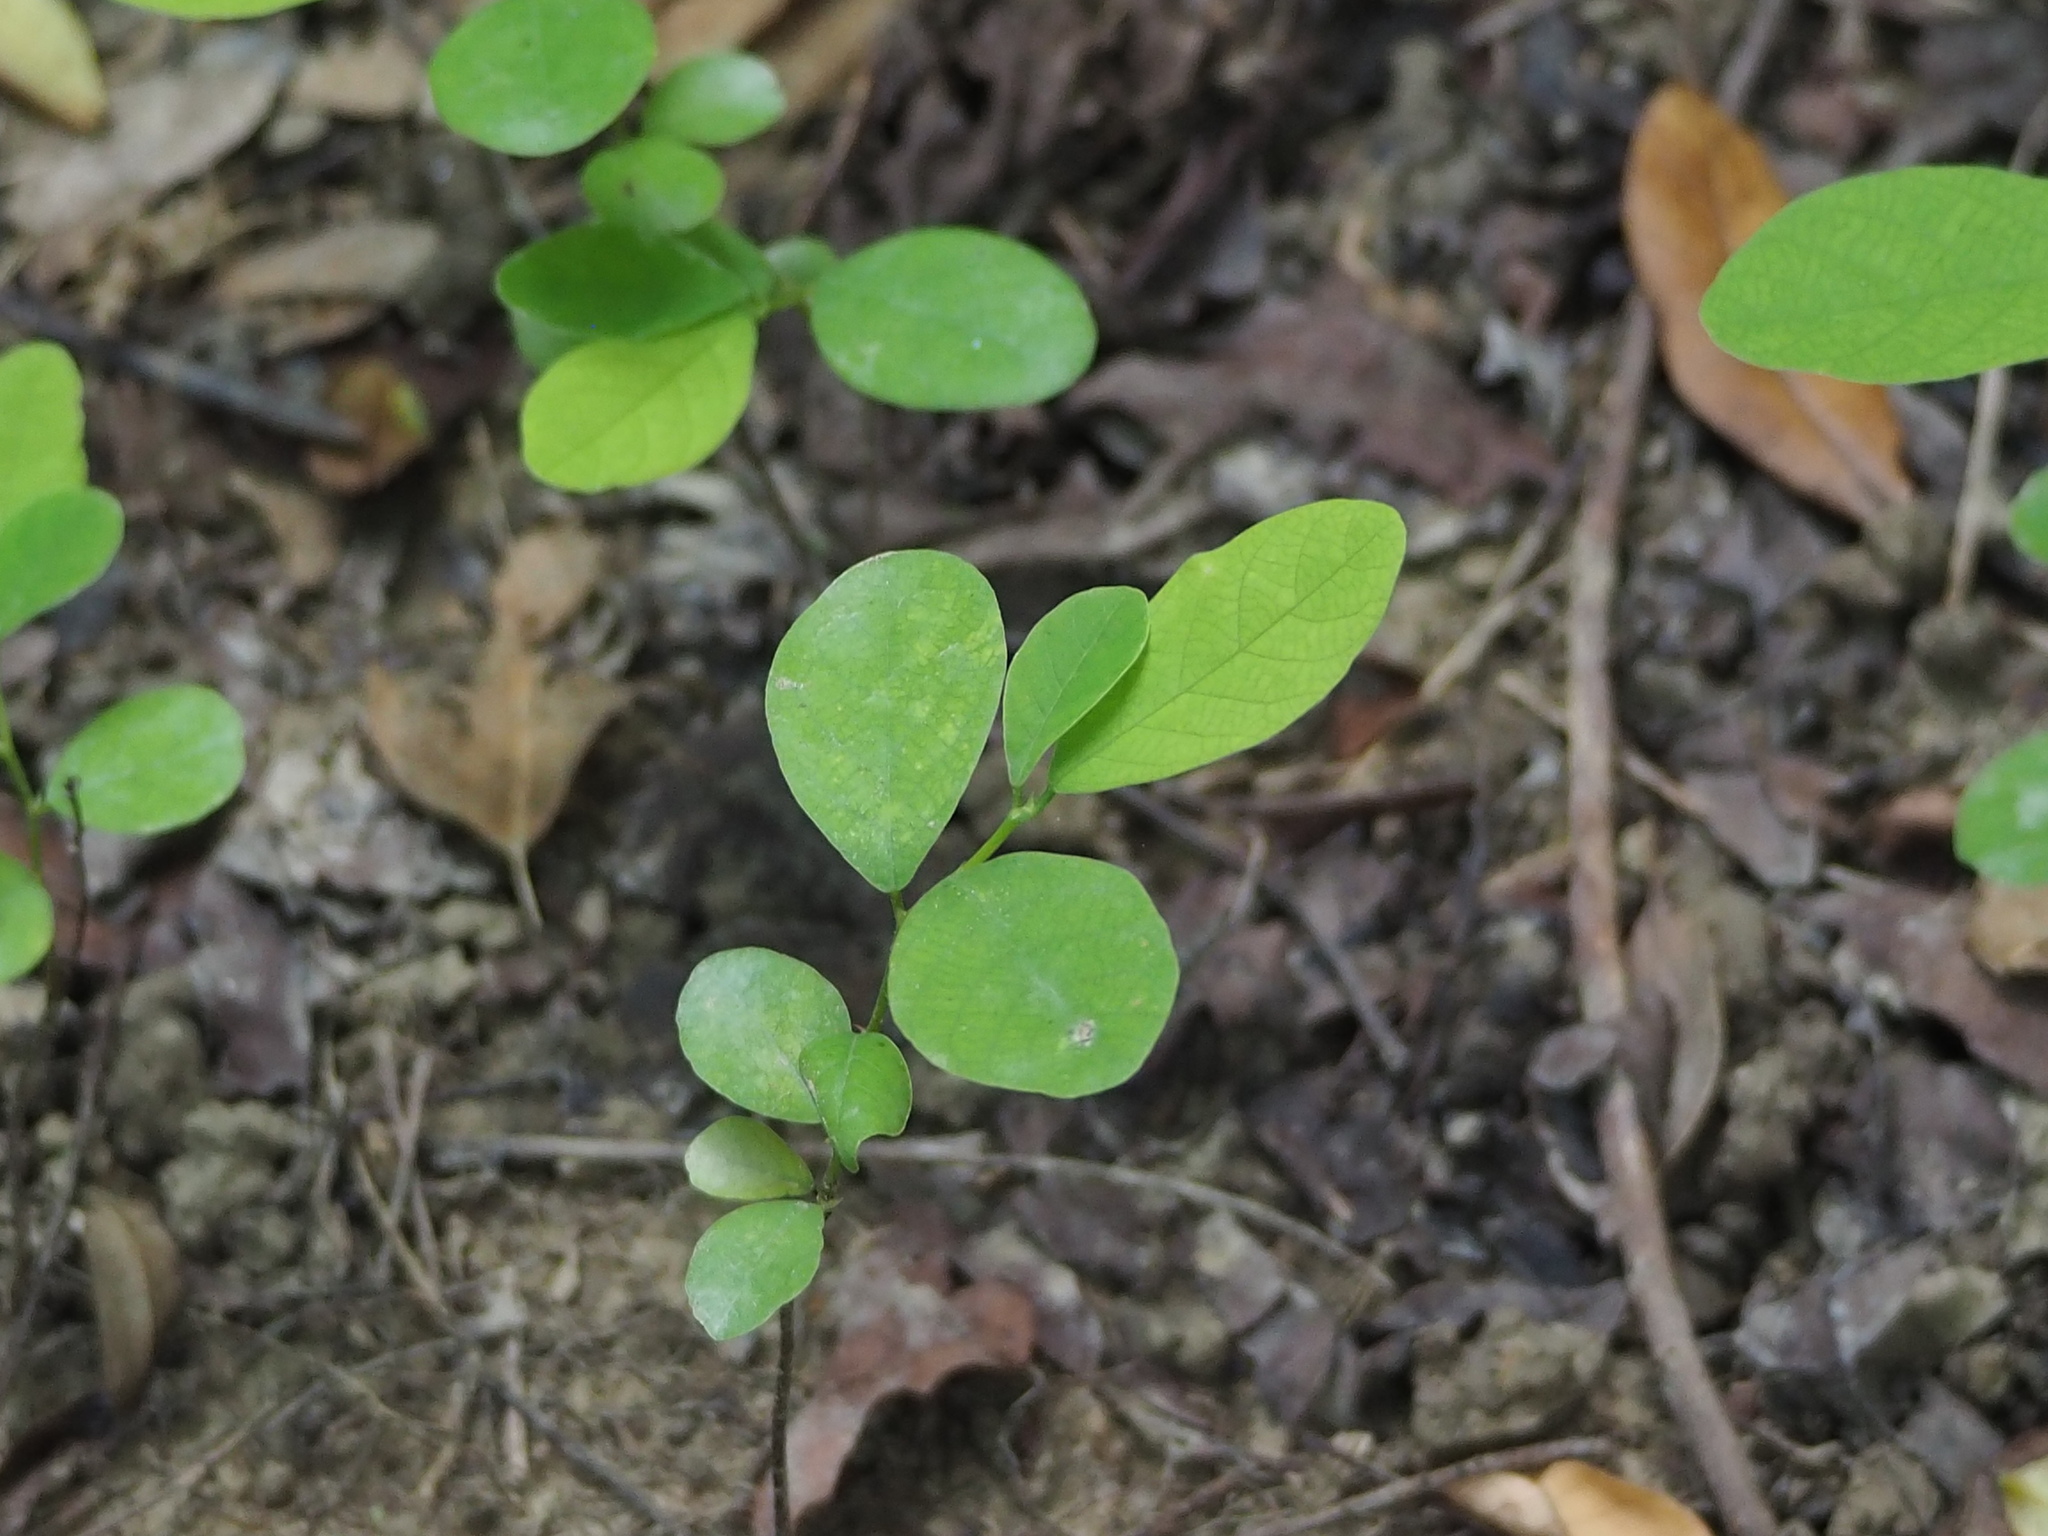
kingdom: Plantae
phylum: Tracheophyta
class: Magnoliopsida
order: Malpighiales
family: Phyllanthaceae
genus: Bridelia
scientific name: Bridelia tomentosa
